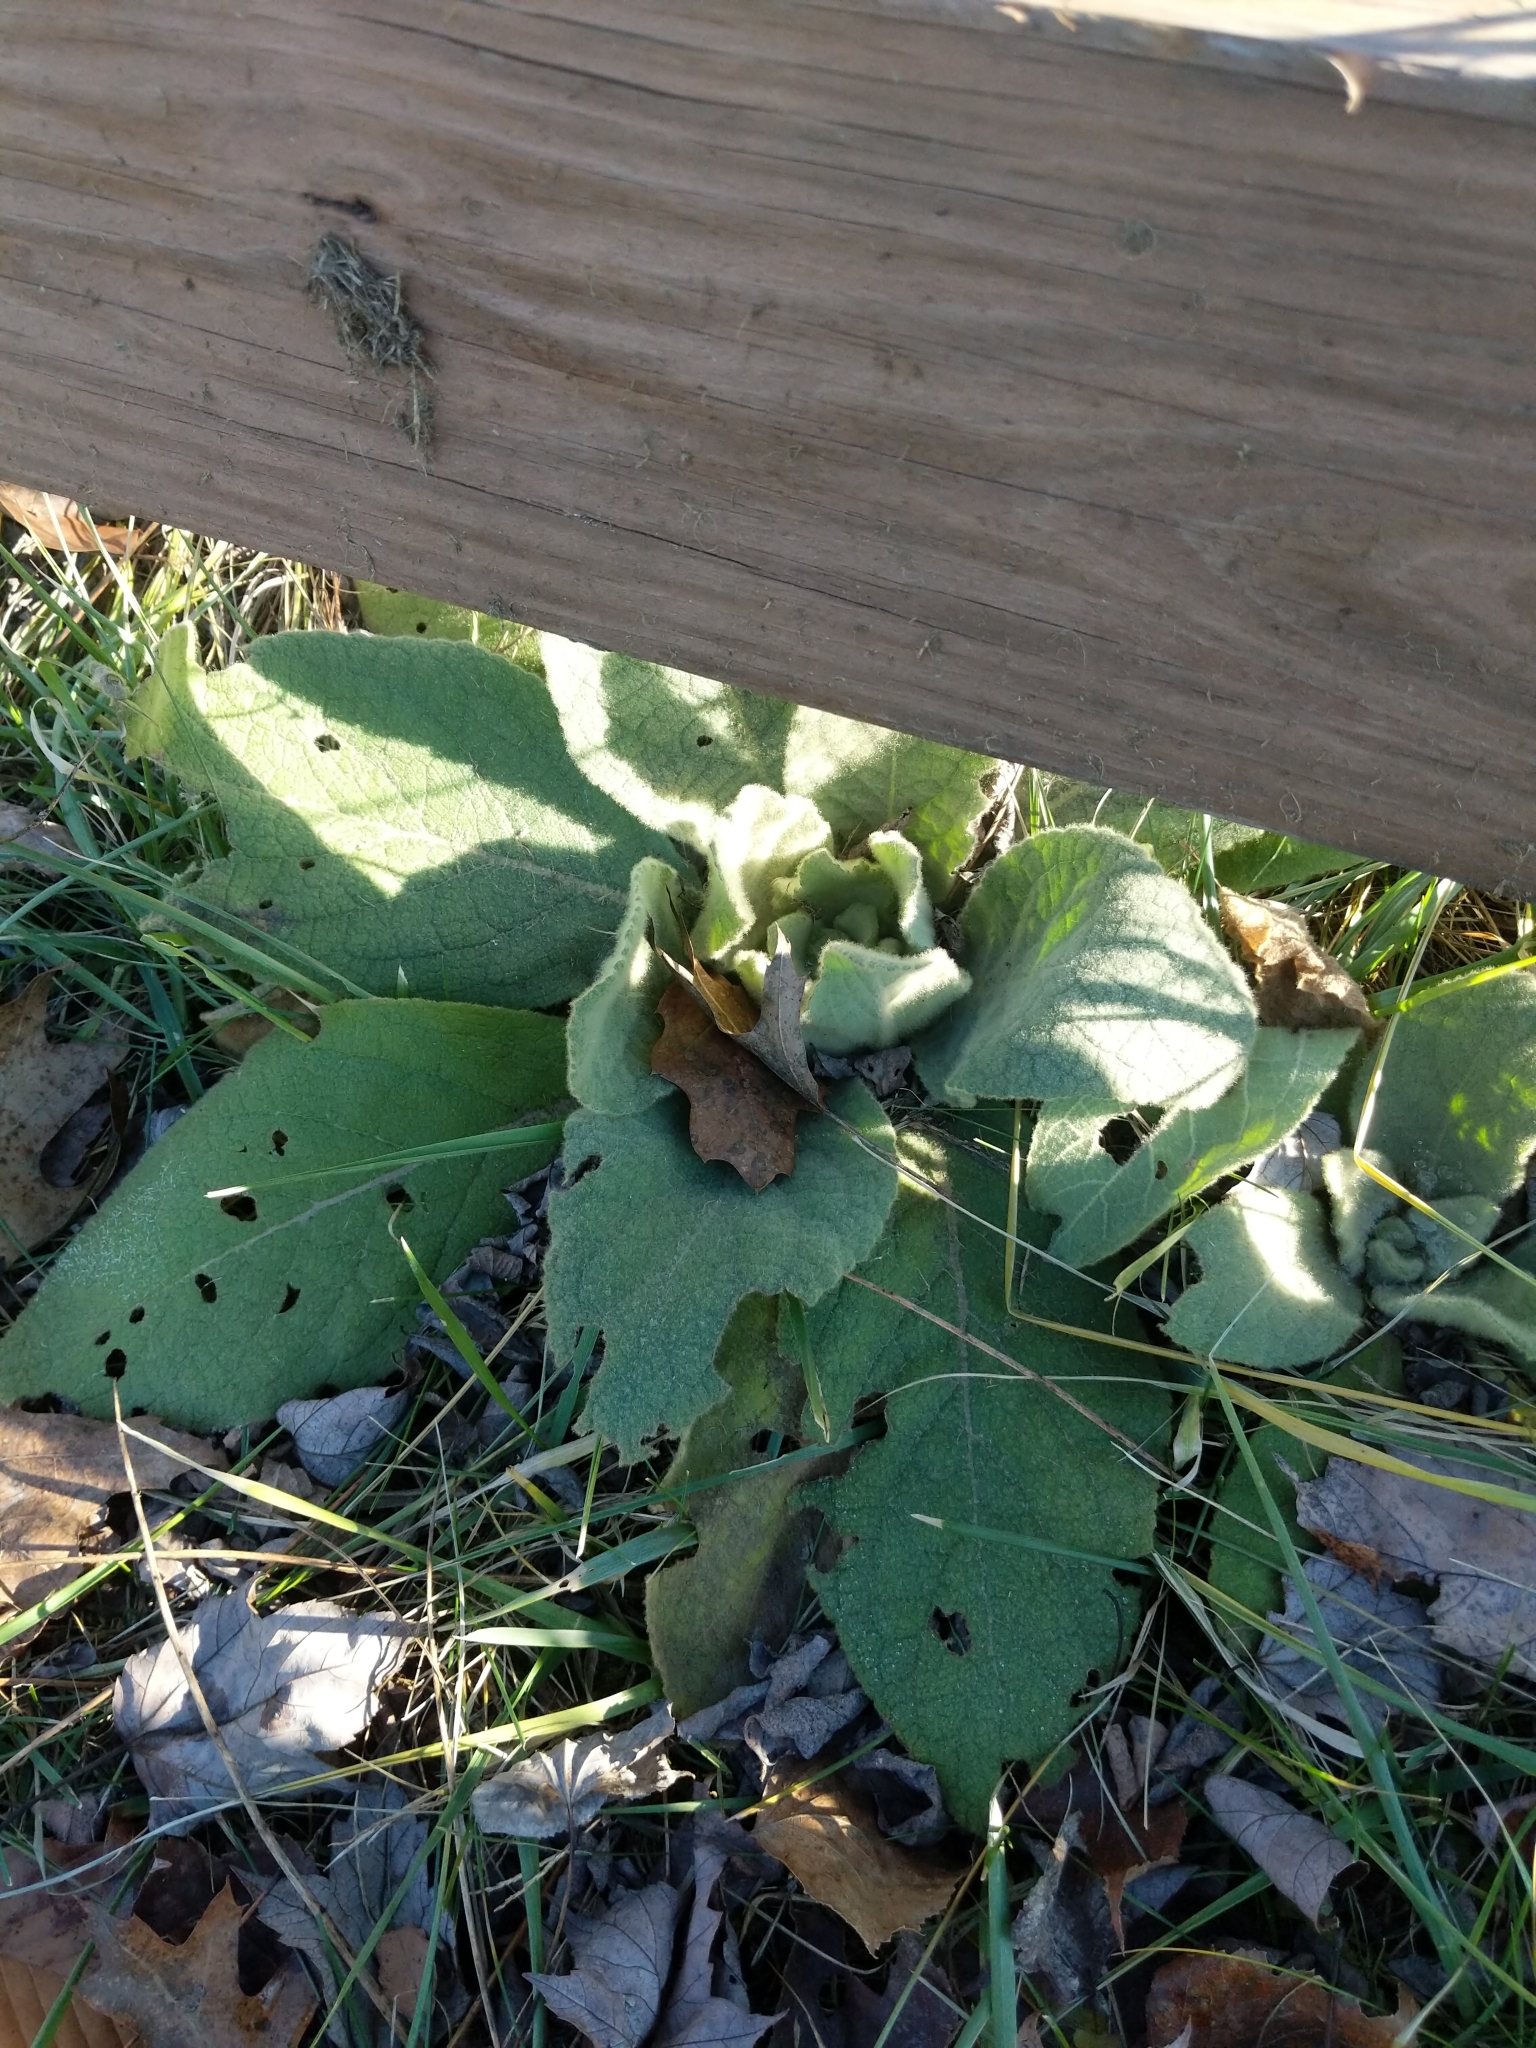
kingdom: Plantae
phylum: Tracheophyta
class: Magnoliopsida
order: Lamiales
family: Scrophulariaceae
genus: Verbascum
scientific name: Verbascum thapsus
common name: Common mullein
